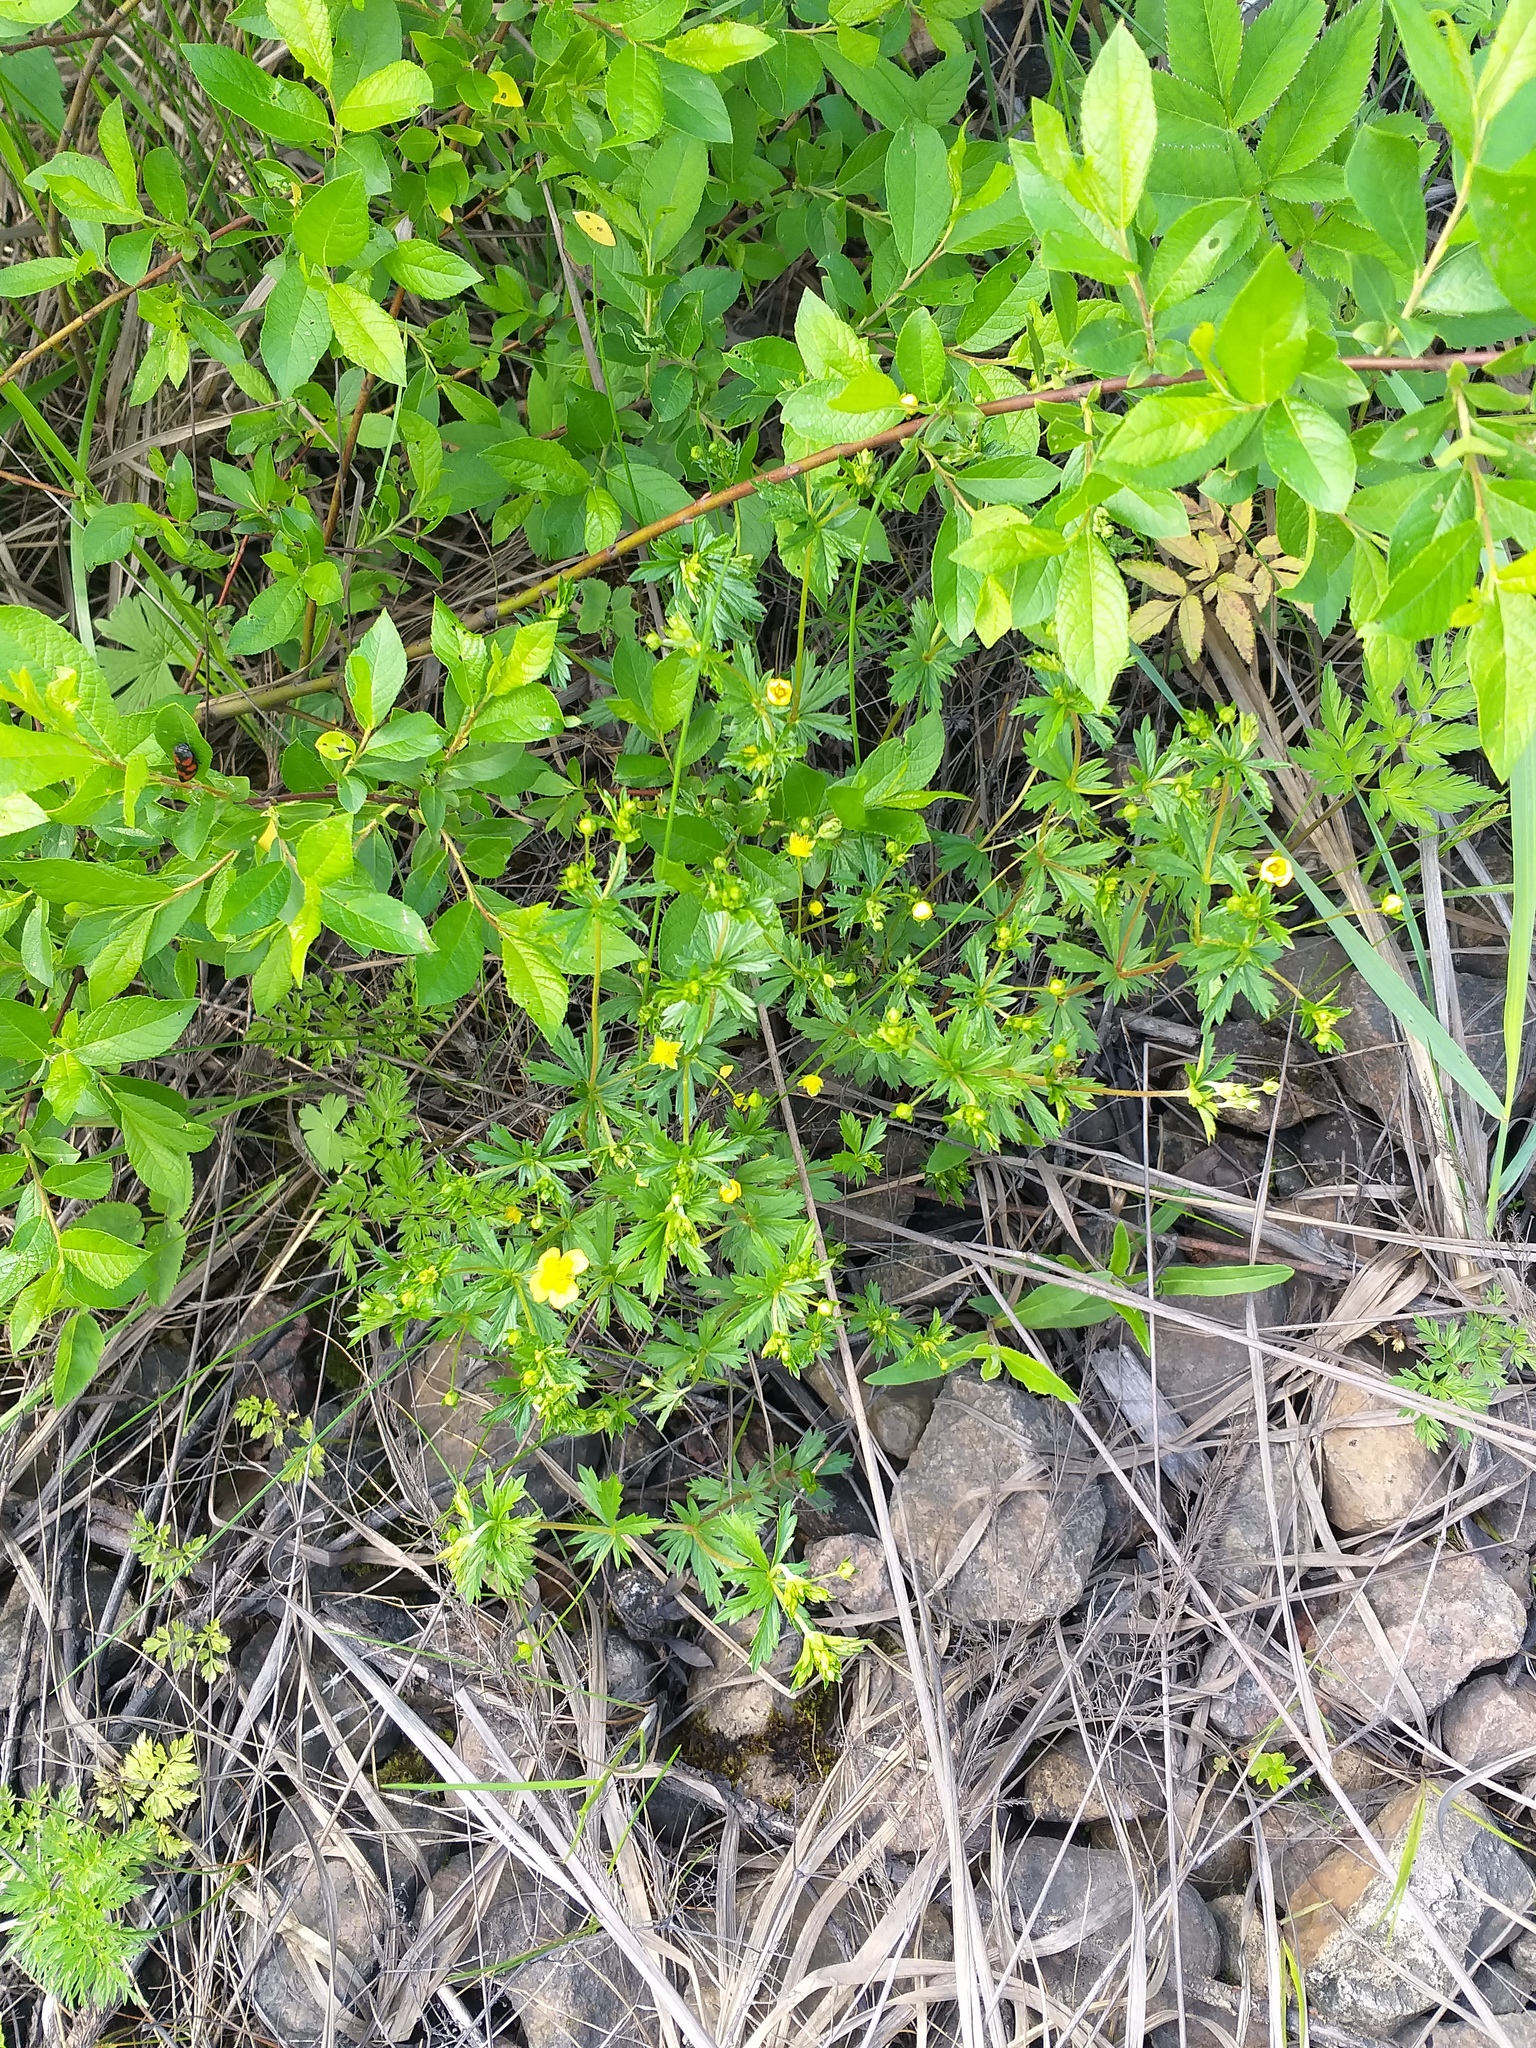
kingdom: Plantae
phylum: Tracheophyta
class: Magnoliopsida
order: Rosales
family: Rosaceae
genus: Potentilla
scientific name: Potentilla erecta
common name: Tormentil
